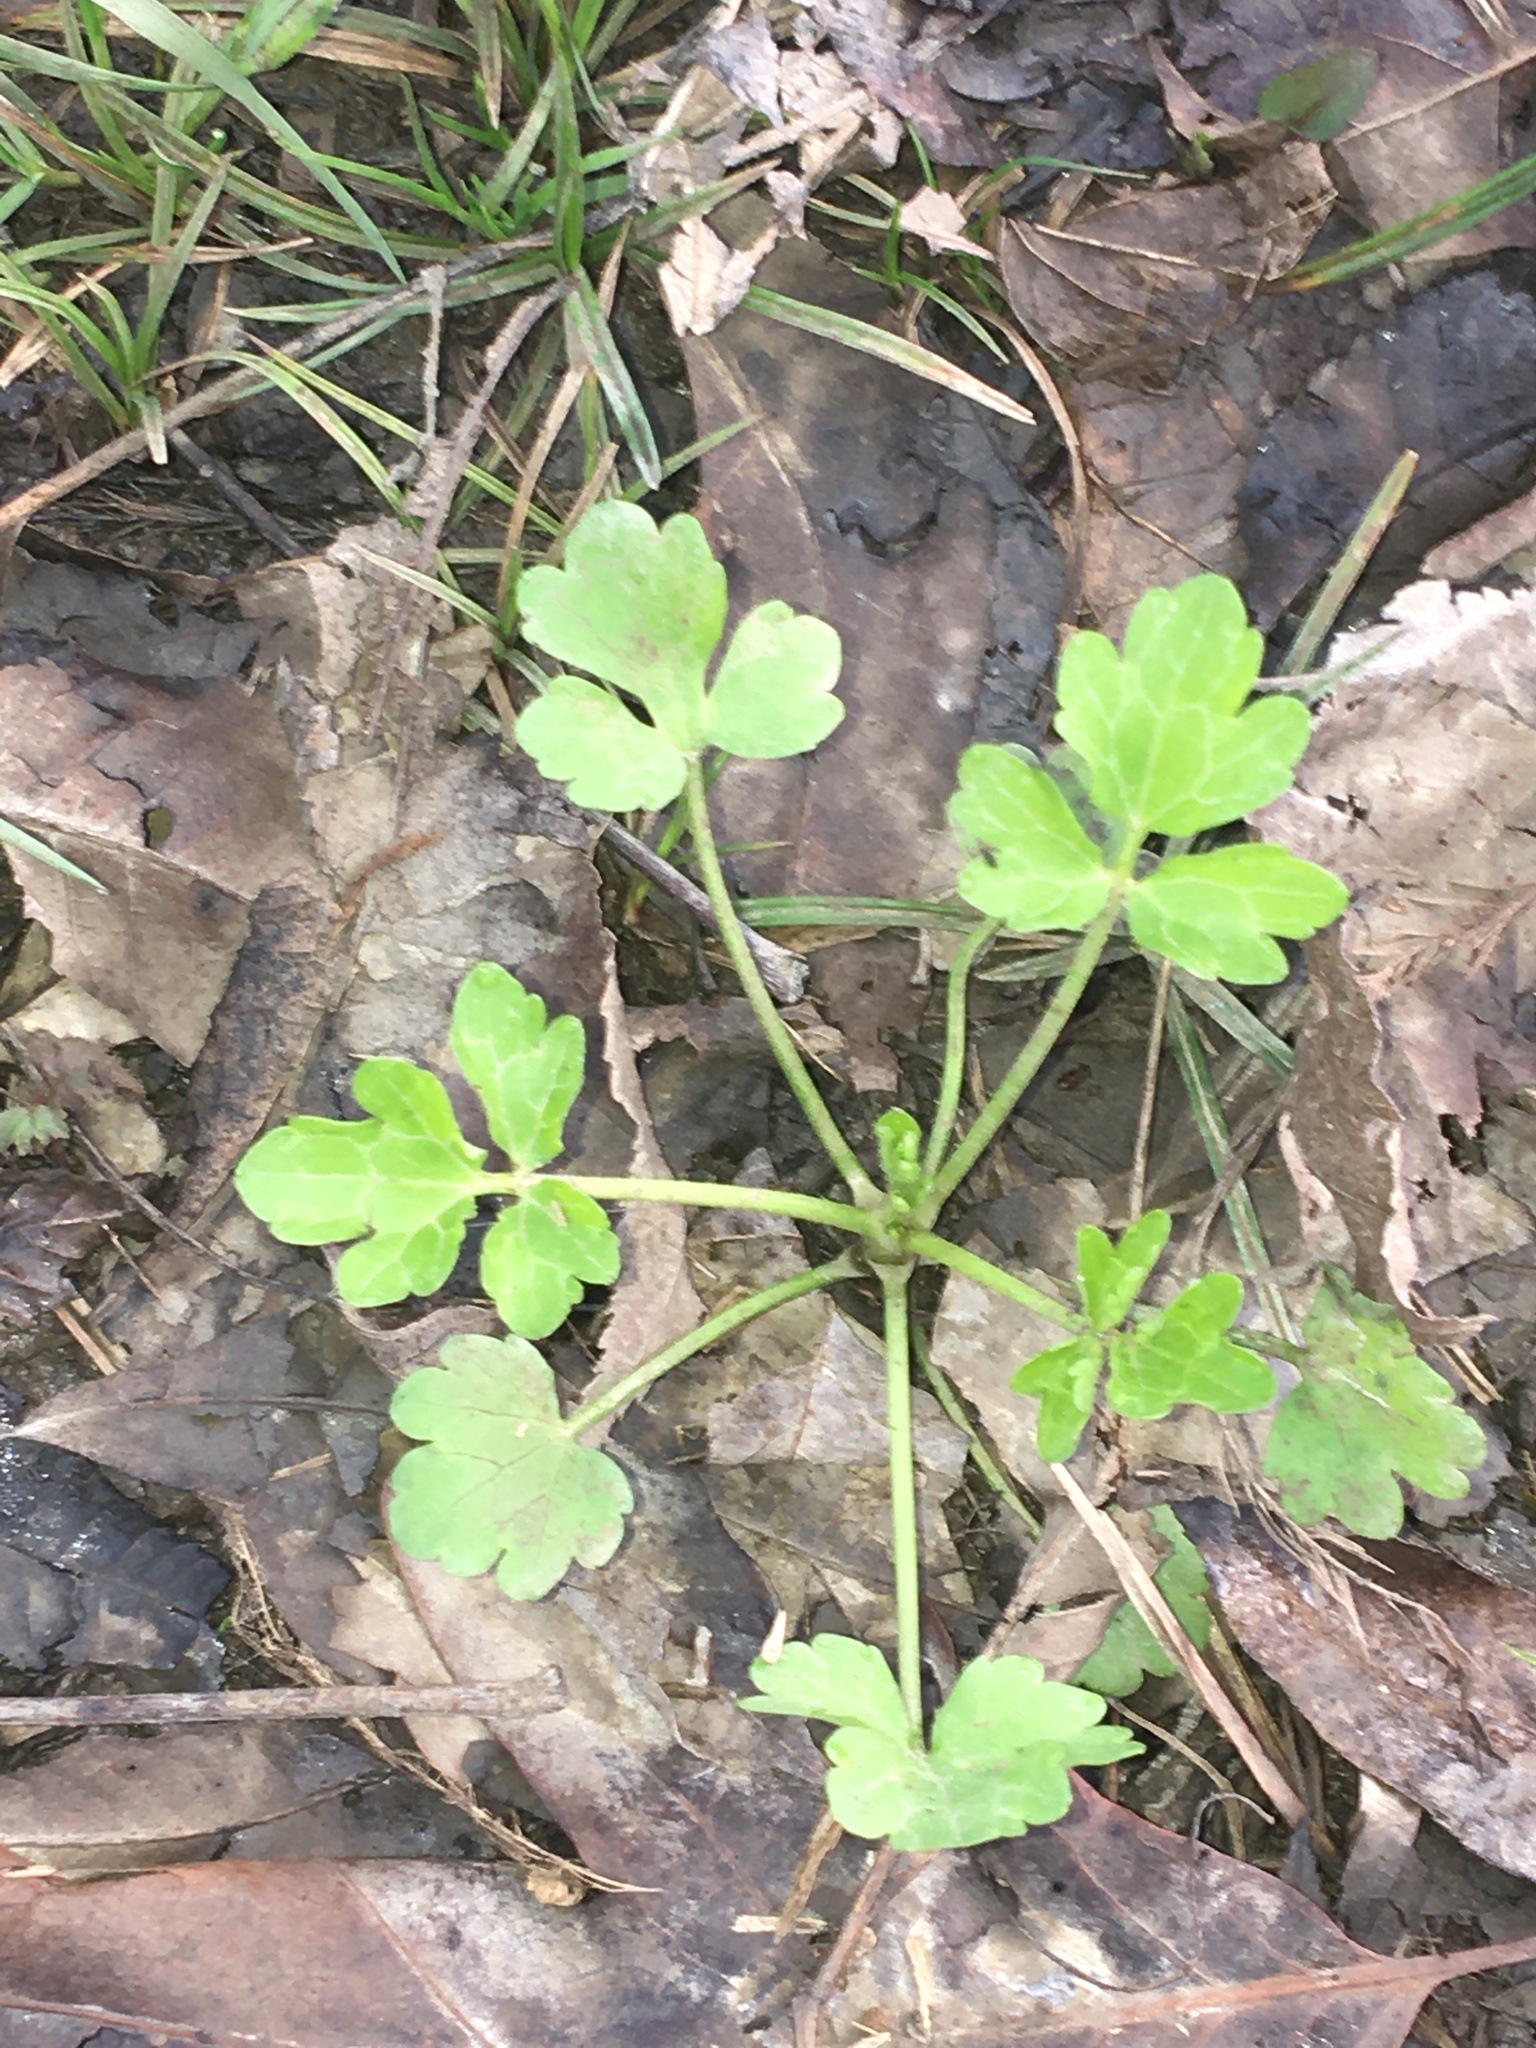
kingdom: Plantae
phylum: Tracheophyta
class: Magnoliopsida
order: Ranunculales
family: Ranunculaceae
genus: Ranunculus
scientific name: Ranunculus sardous
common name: Hairy buttercup
